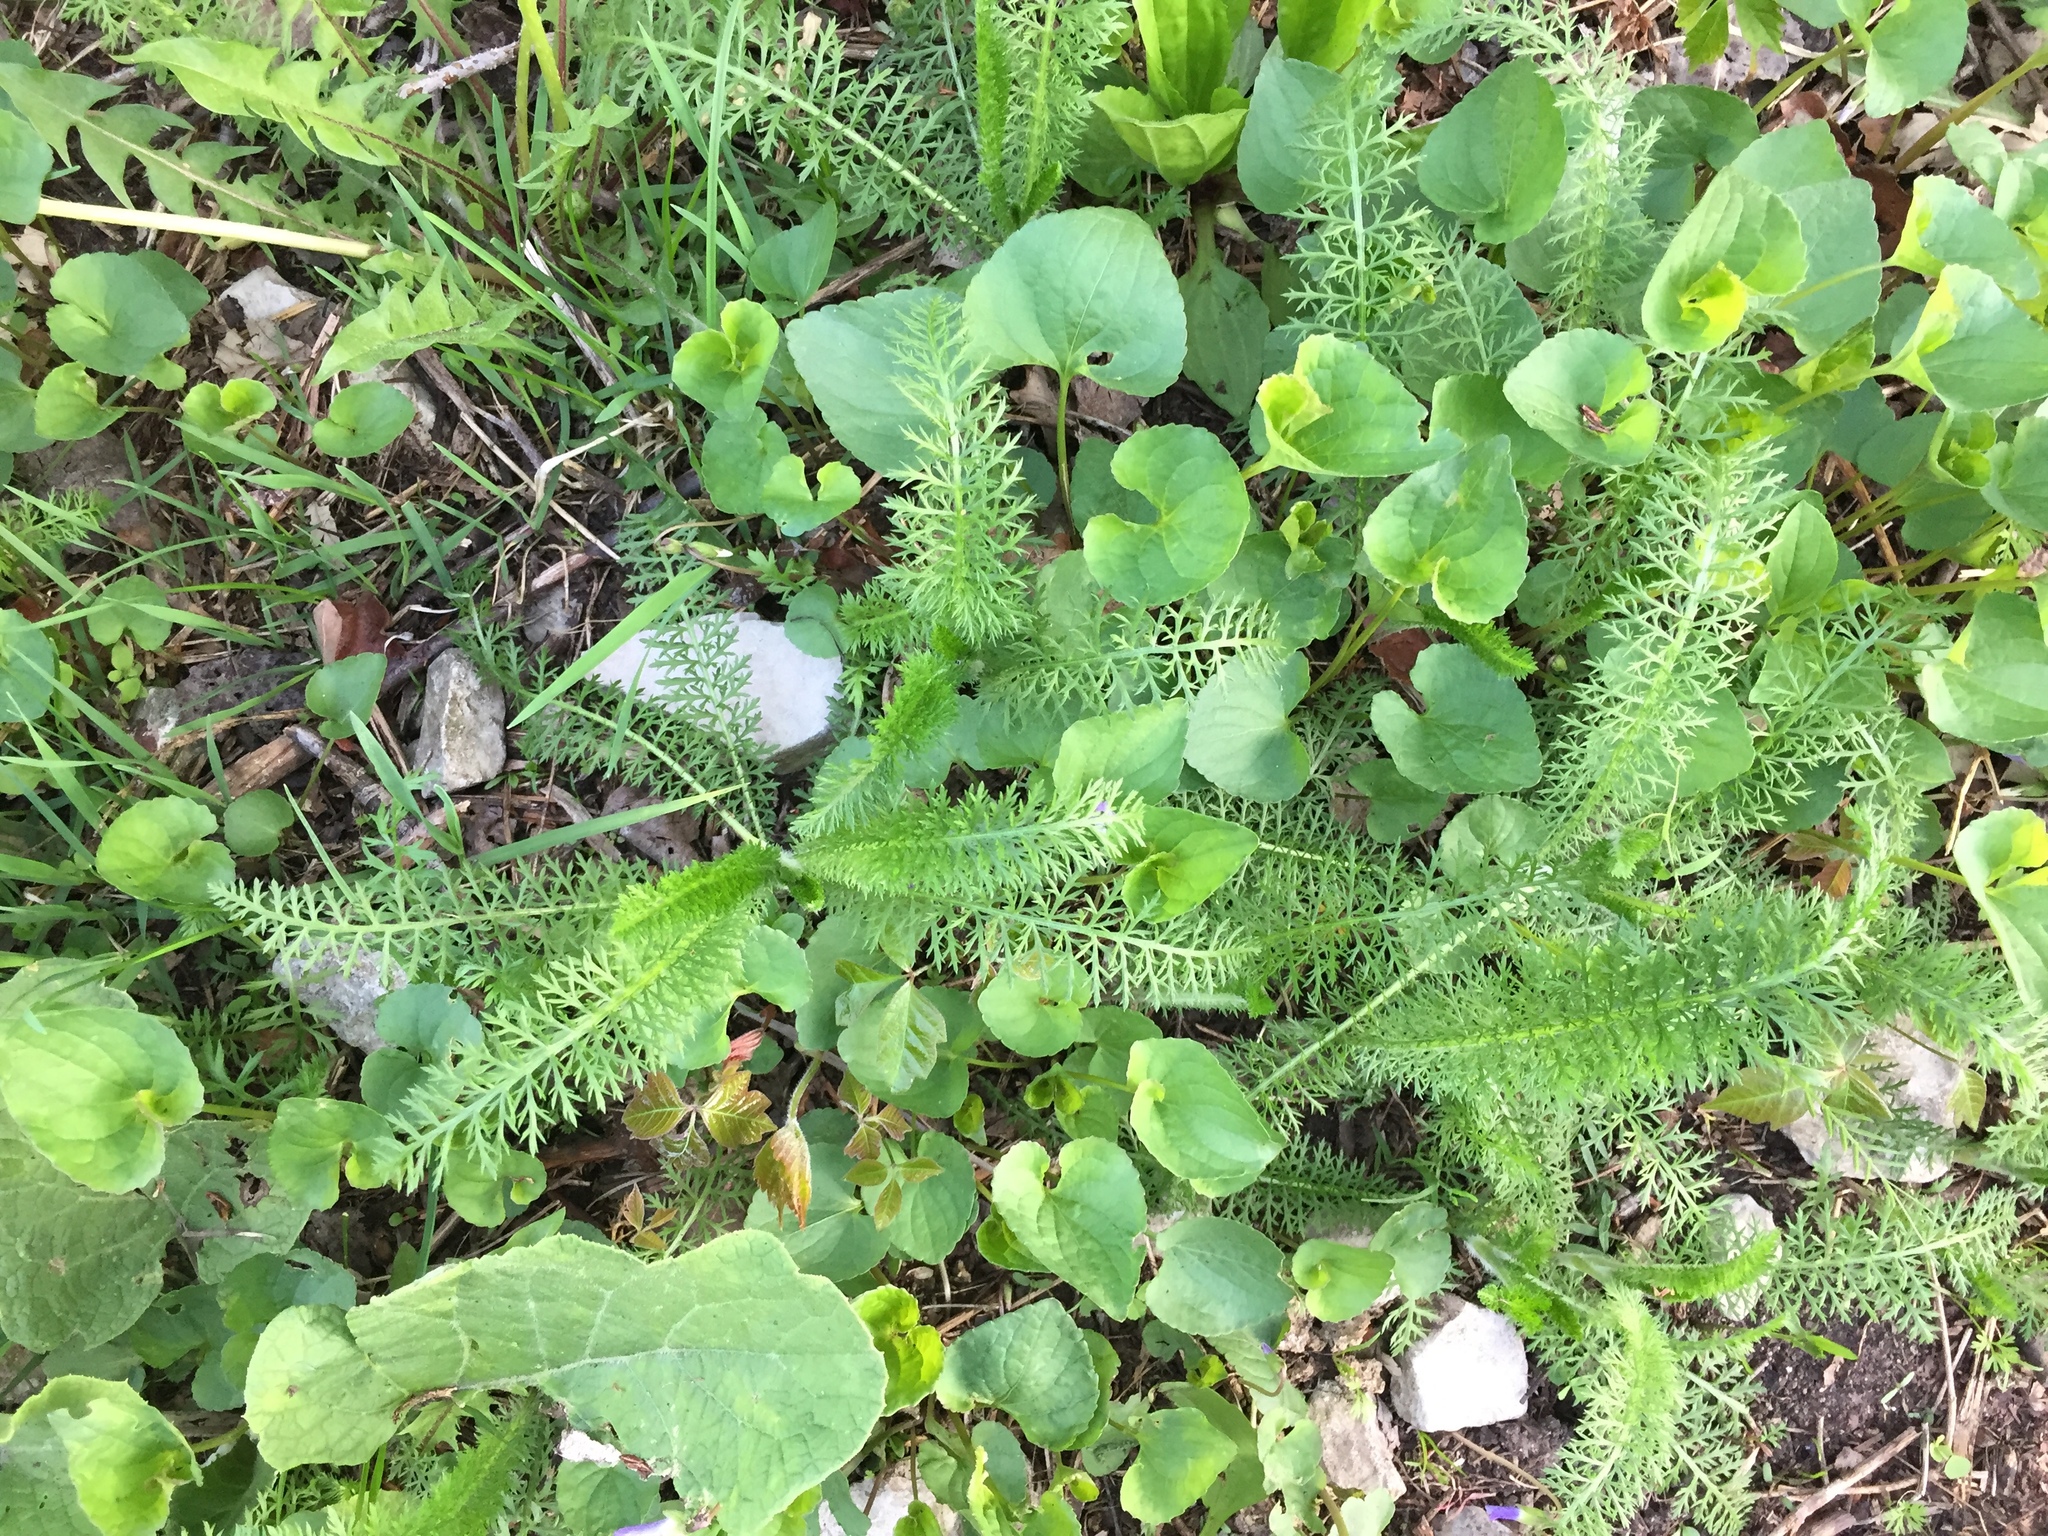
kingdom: Plantae
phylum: Tracheophyta
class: Magnoliopsida
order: Asterales
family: Asteraceae
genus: Achillea
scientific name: Achillea millefolium
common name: Yarrow
